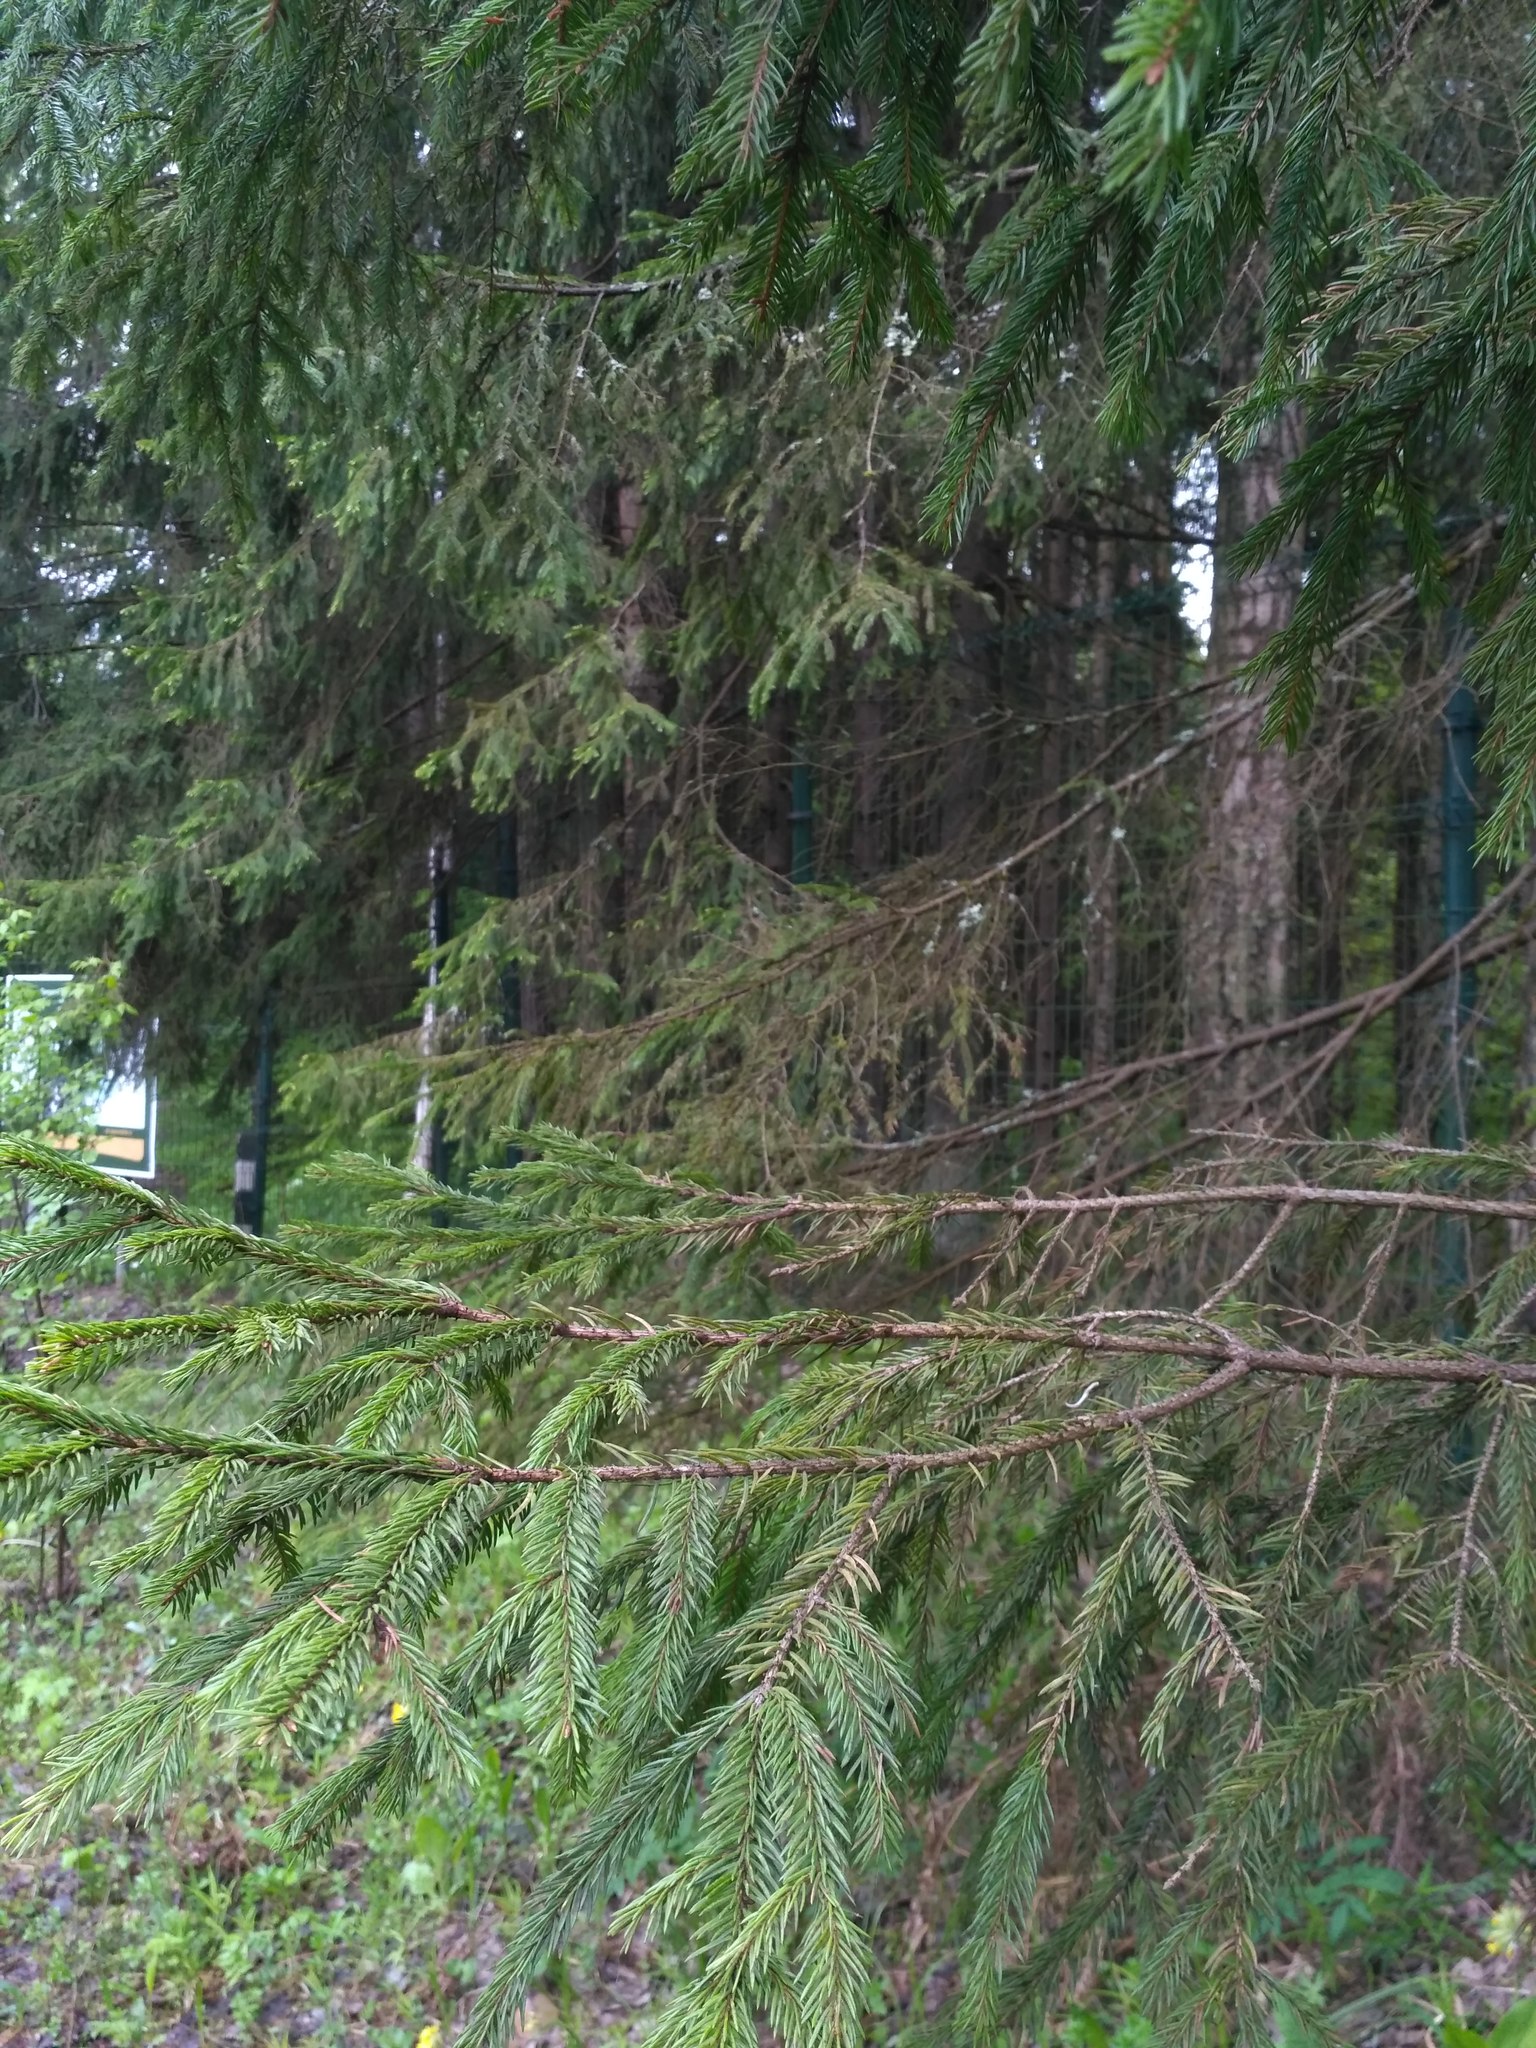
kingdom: Plantae
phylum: Tracheophyta
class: Pinopsida
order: Pinales
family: Pinaceae
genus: Picea
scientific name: Picea abies
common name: Norway spruce
